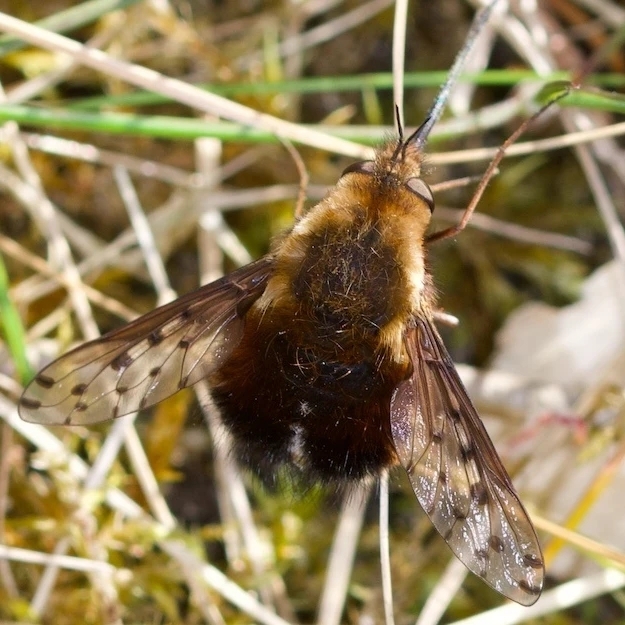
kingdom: Animalia
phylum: Arthropoda
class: Insecta
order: Diptera
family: Bombyliidae
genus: Bombylius
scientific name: Bombylius discolor
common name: Dotted bee-fly
